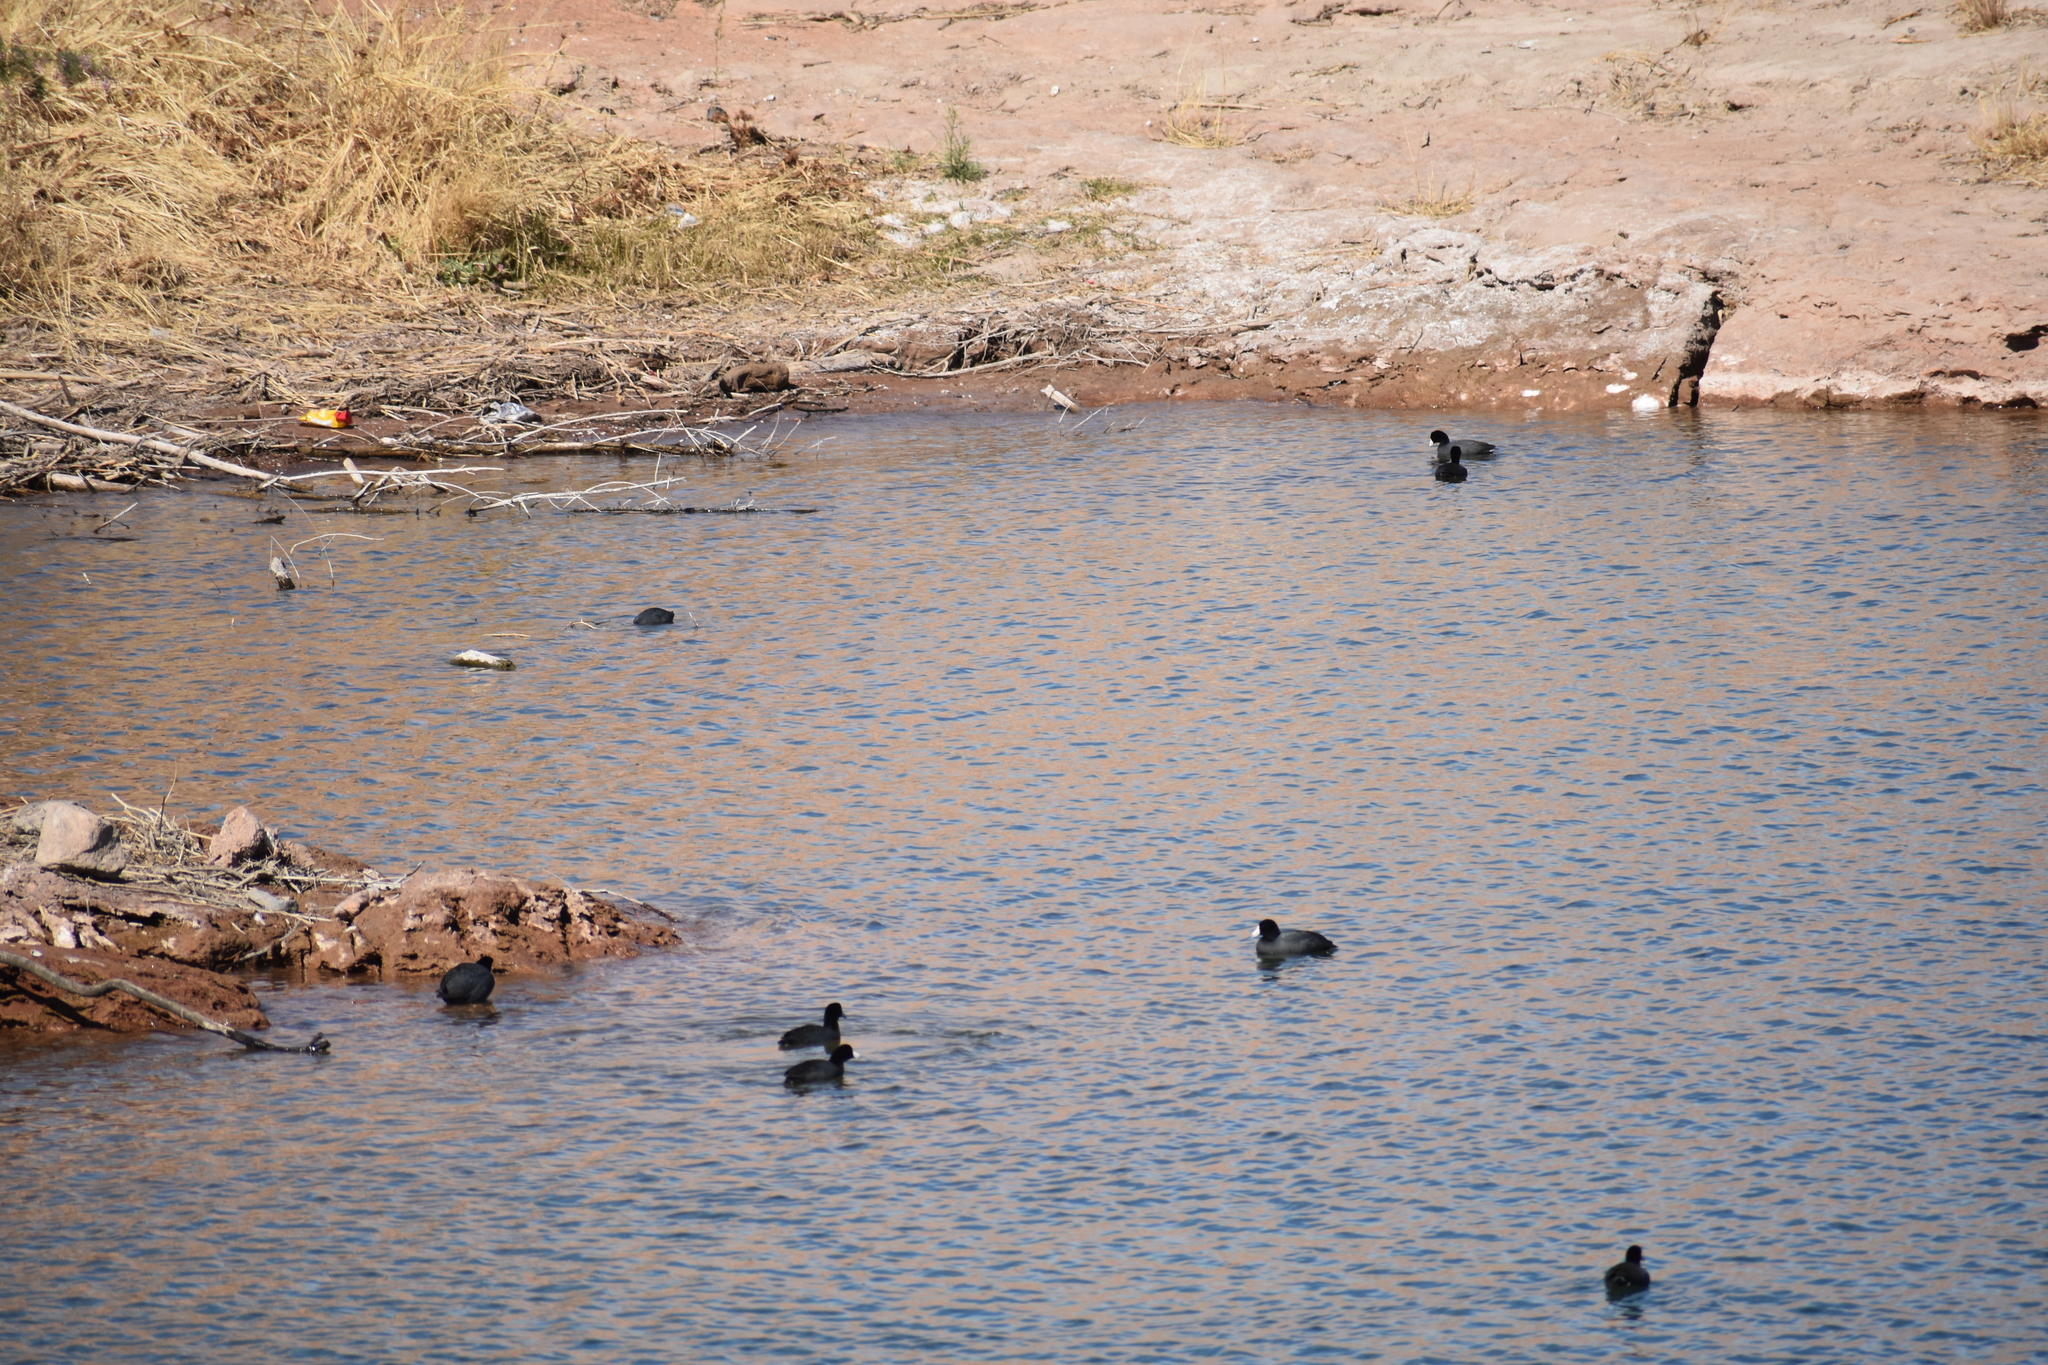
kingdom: Animalia
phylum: Chordata
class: Aves
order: Gruiformes
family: Rallidae
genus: Fulica
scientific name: Fulica americana
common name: American coot
